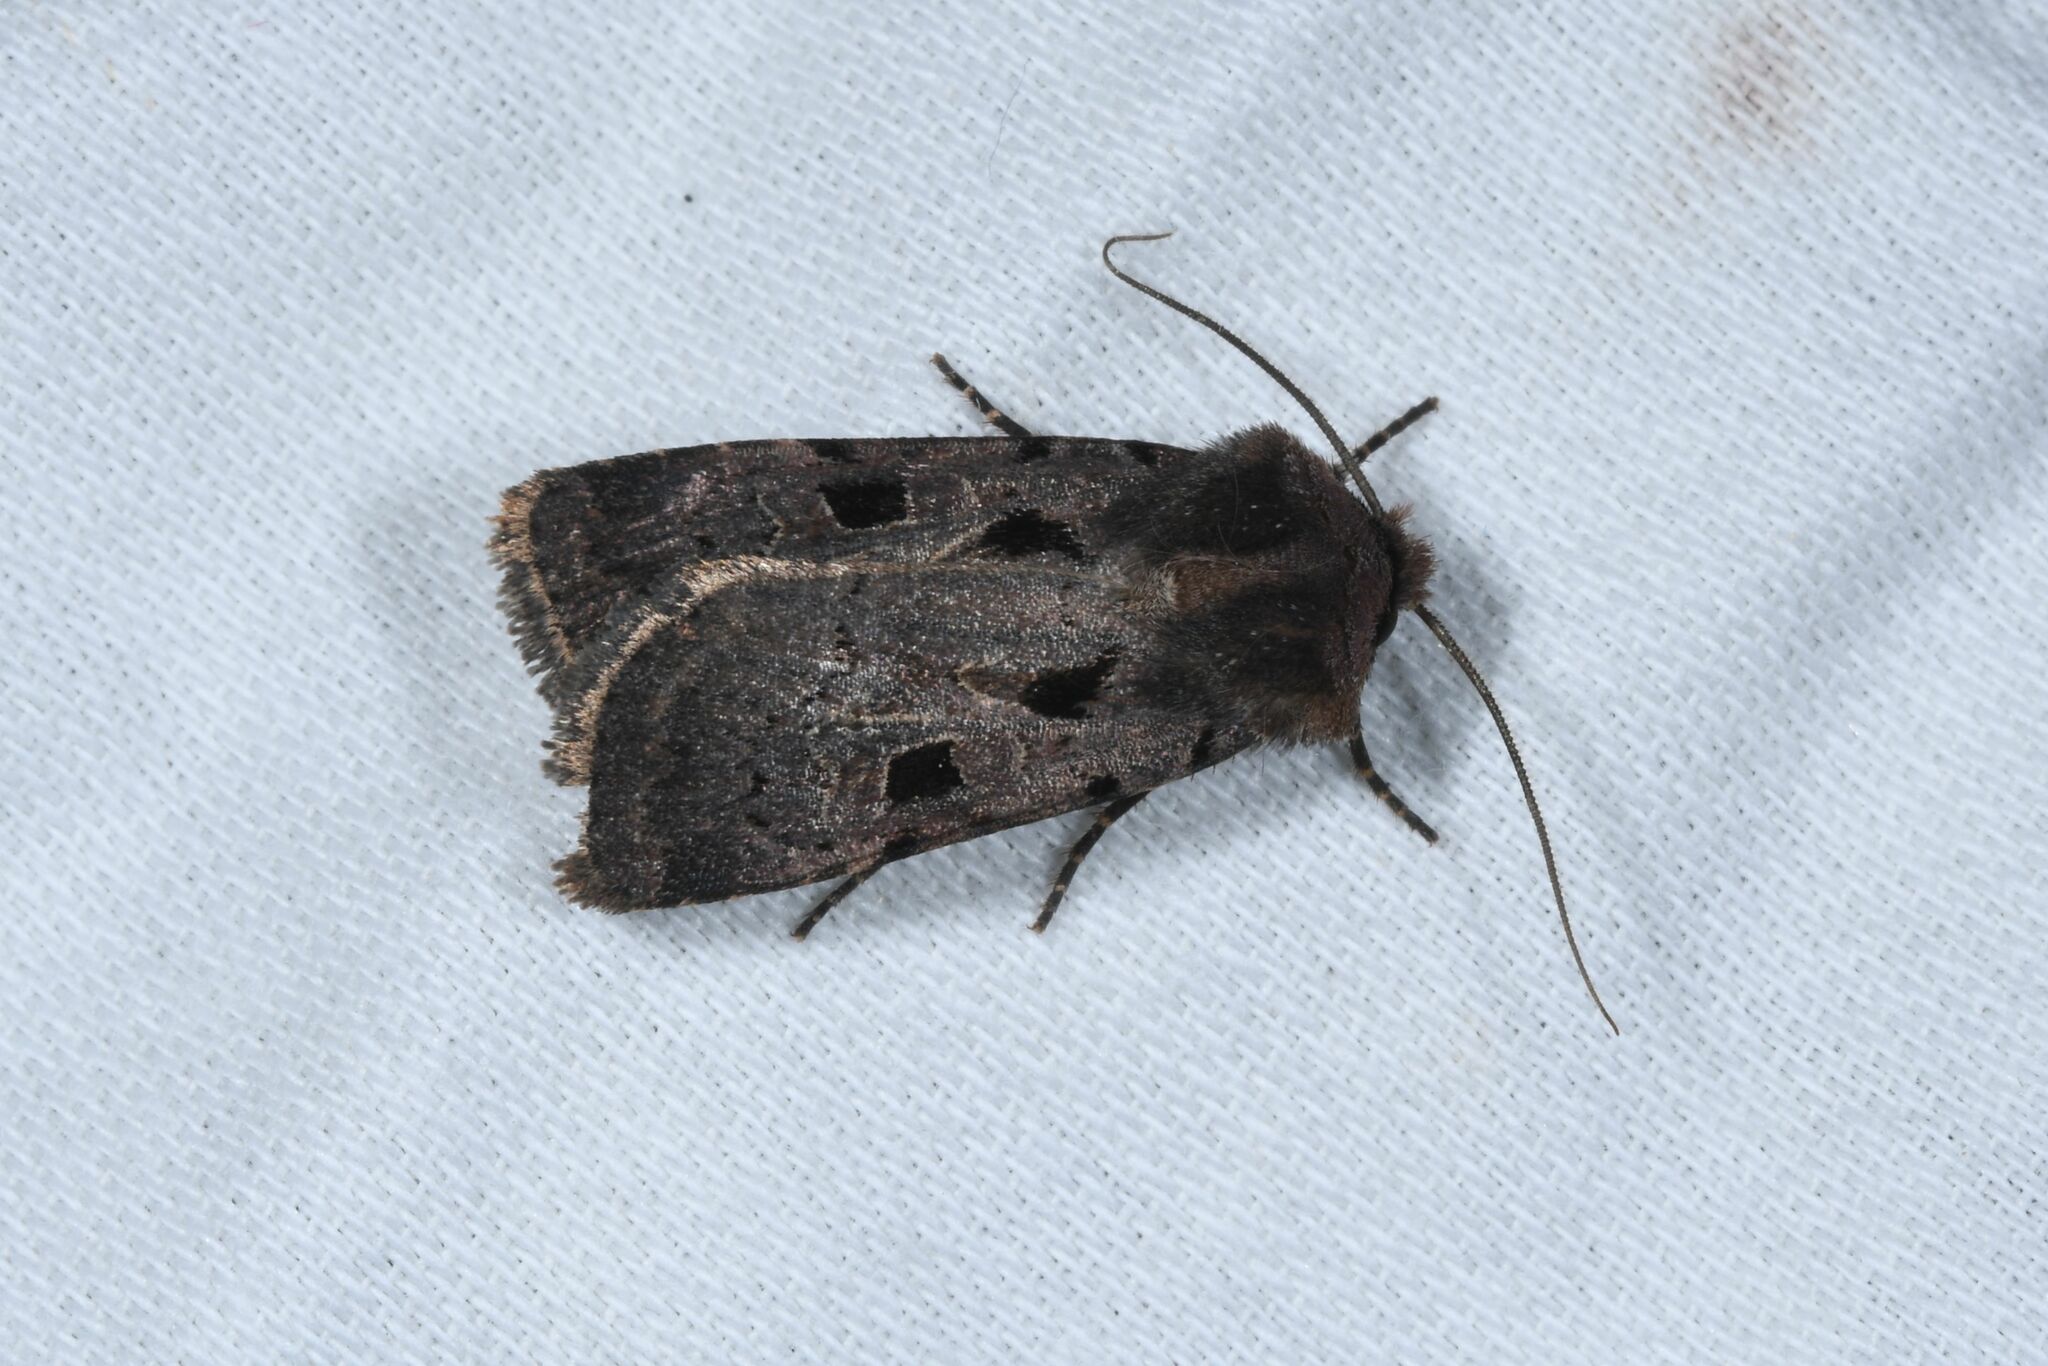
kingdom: Animalia
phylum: Arthropoda
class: Insecta
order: Lepidoptera
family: Noctuidae
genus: Chersotis
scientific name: Chersotis andereggii
